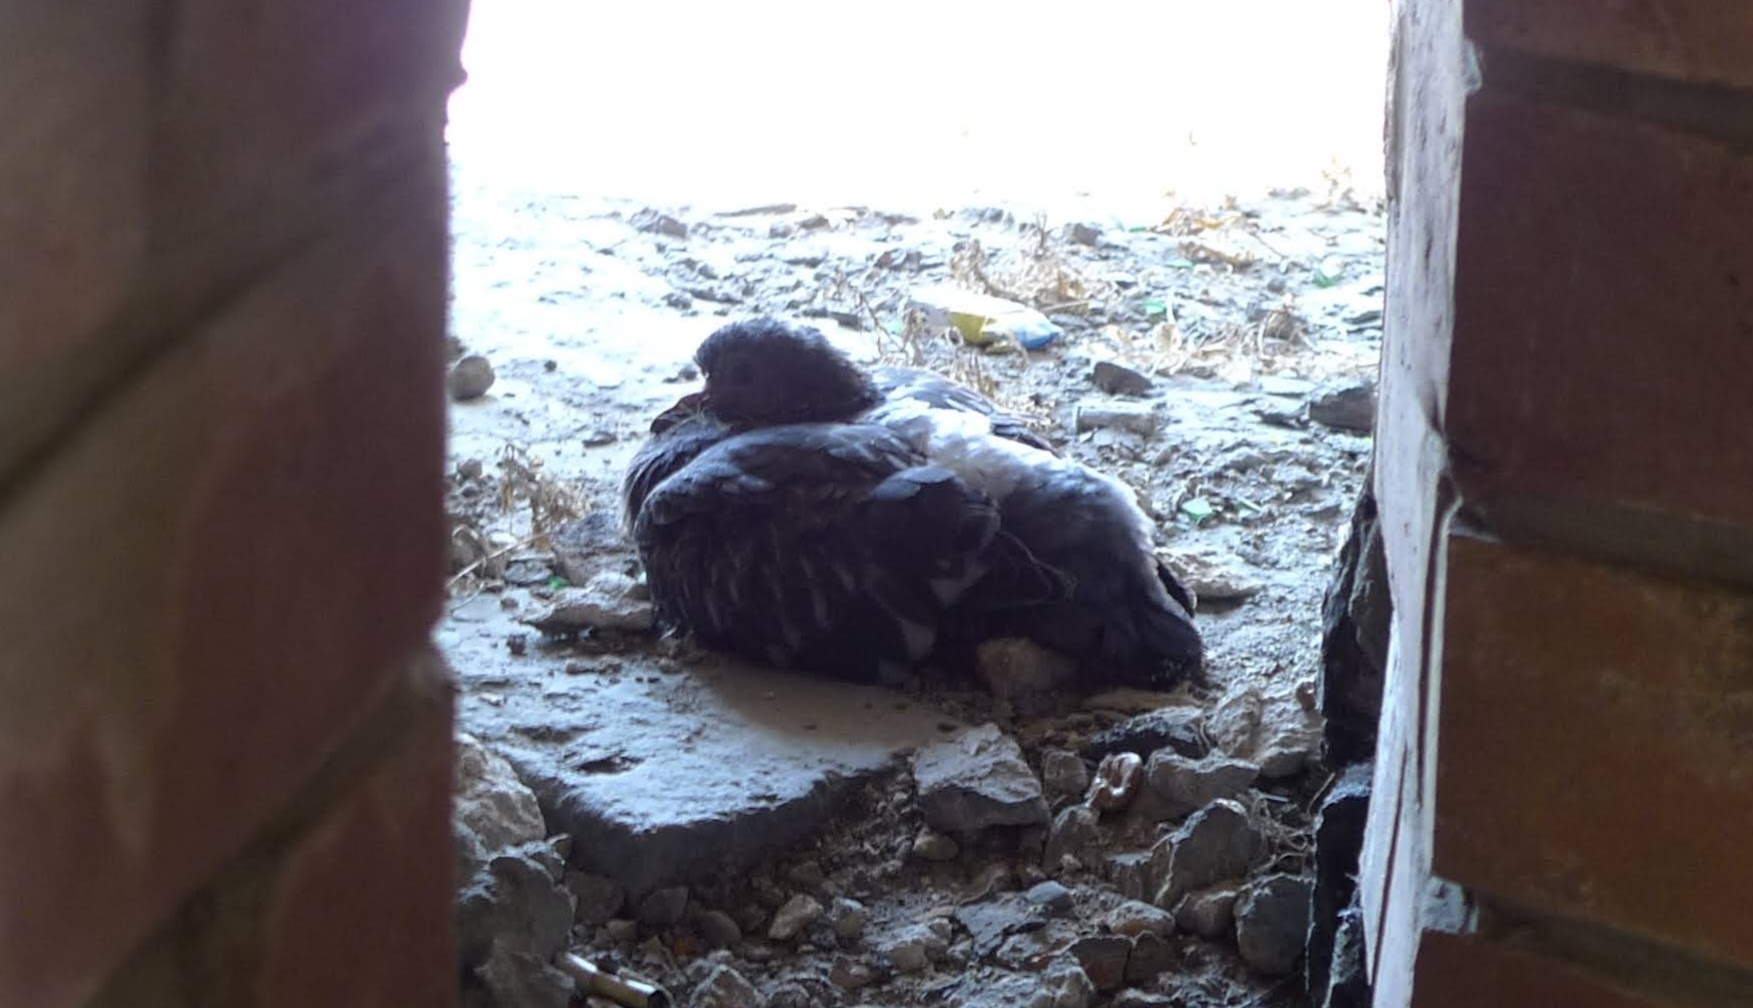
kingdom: Animalia
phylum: Chordata
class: Aves
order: Columbiformes
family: Columbidae
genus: Columba
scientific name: Columba livia
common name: Rock pigeon
